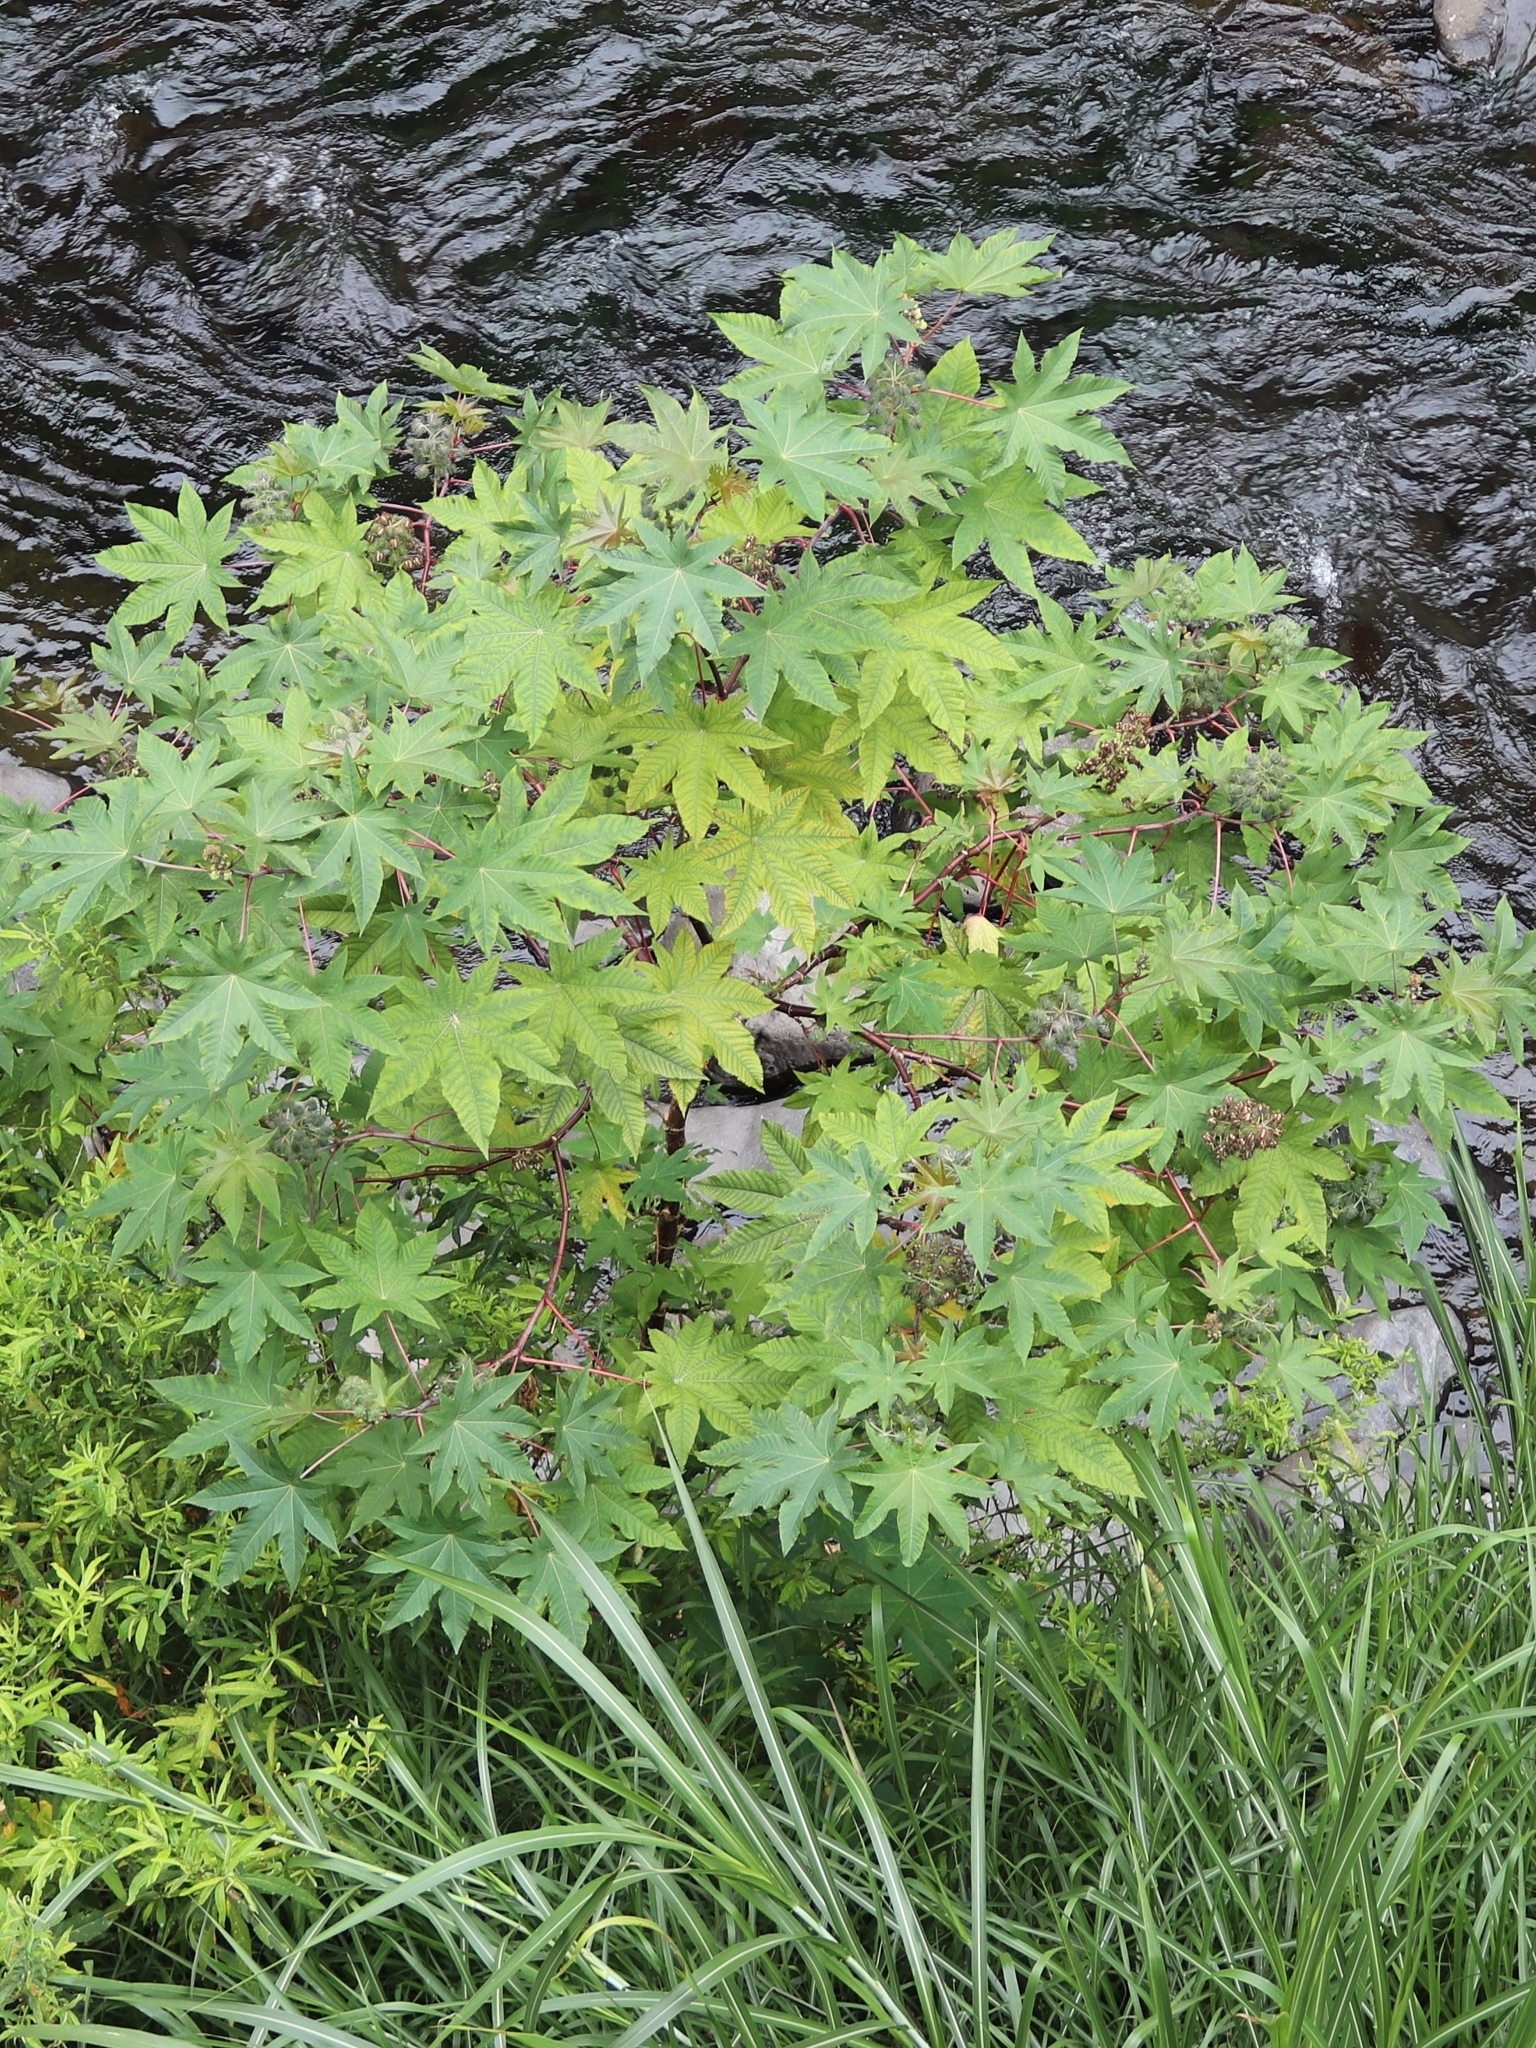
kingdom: Plantae
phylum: Tracheophyta
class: Magnoliopsida
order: Malpighiales
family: Euphorbiaceae
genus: Ricinus
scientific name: Ricinus communis
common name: Castor-oil-plant
